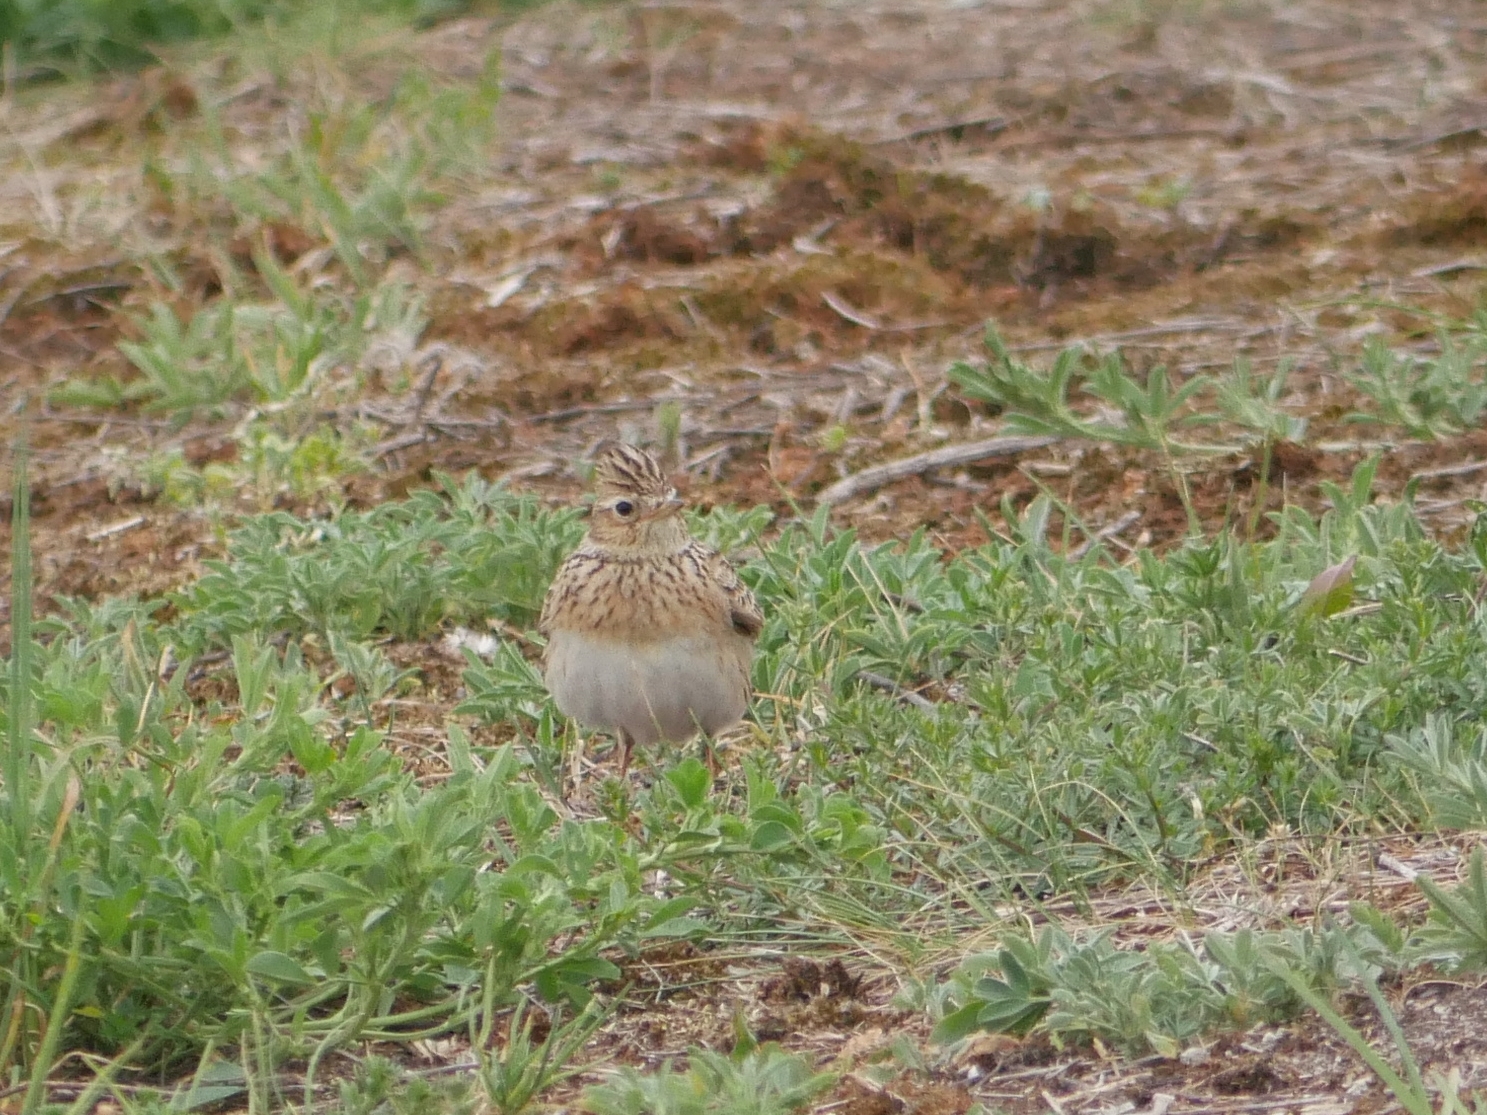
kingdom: Animalia
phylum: Chordata
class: Aves
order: Passeriformes
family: Alaudidae
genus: Alauda
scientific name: Alauda arvensis
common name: Eurasian skylark
